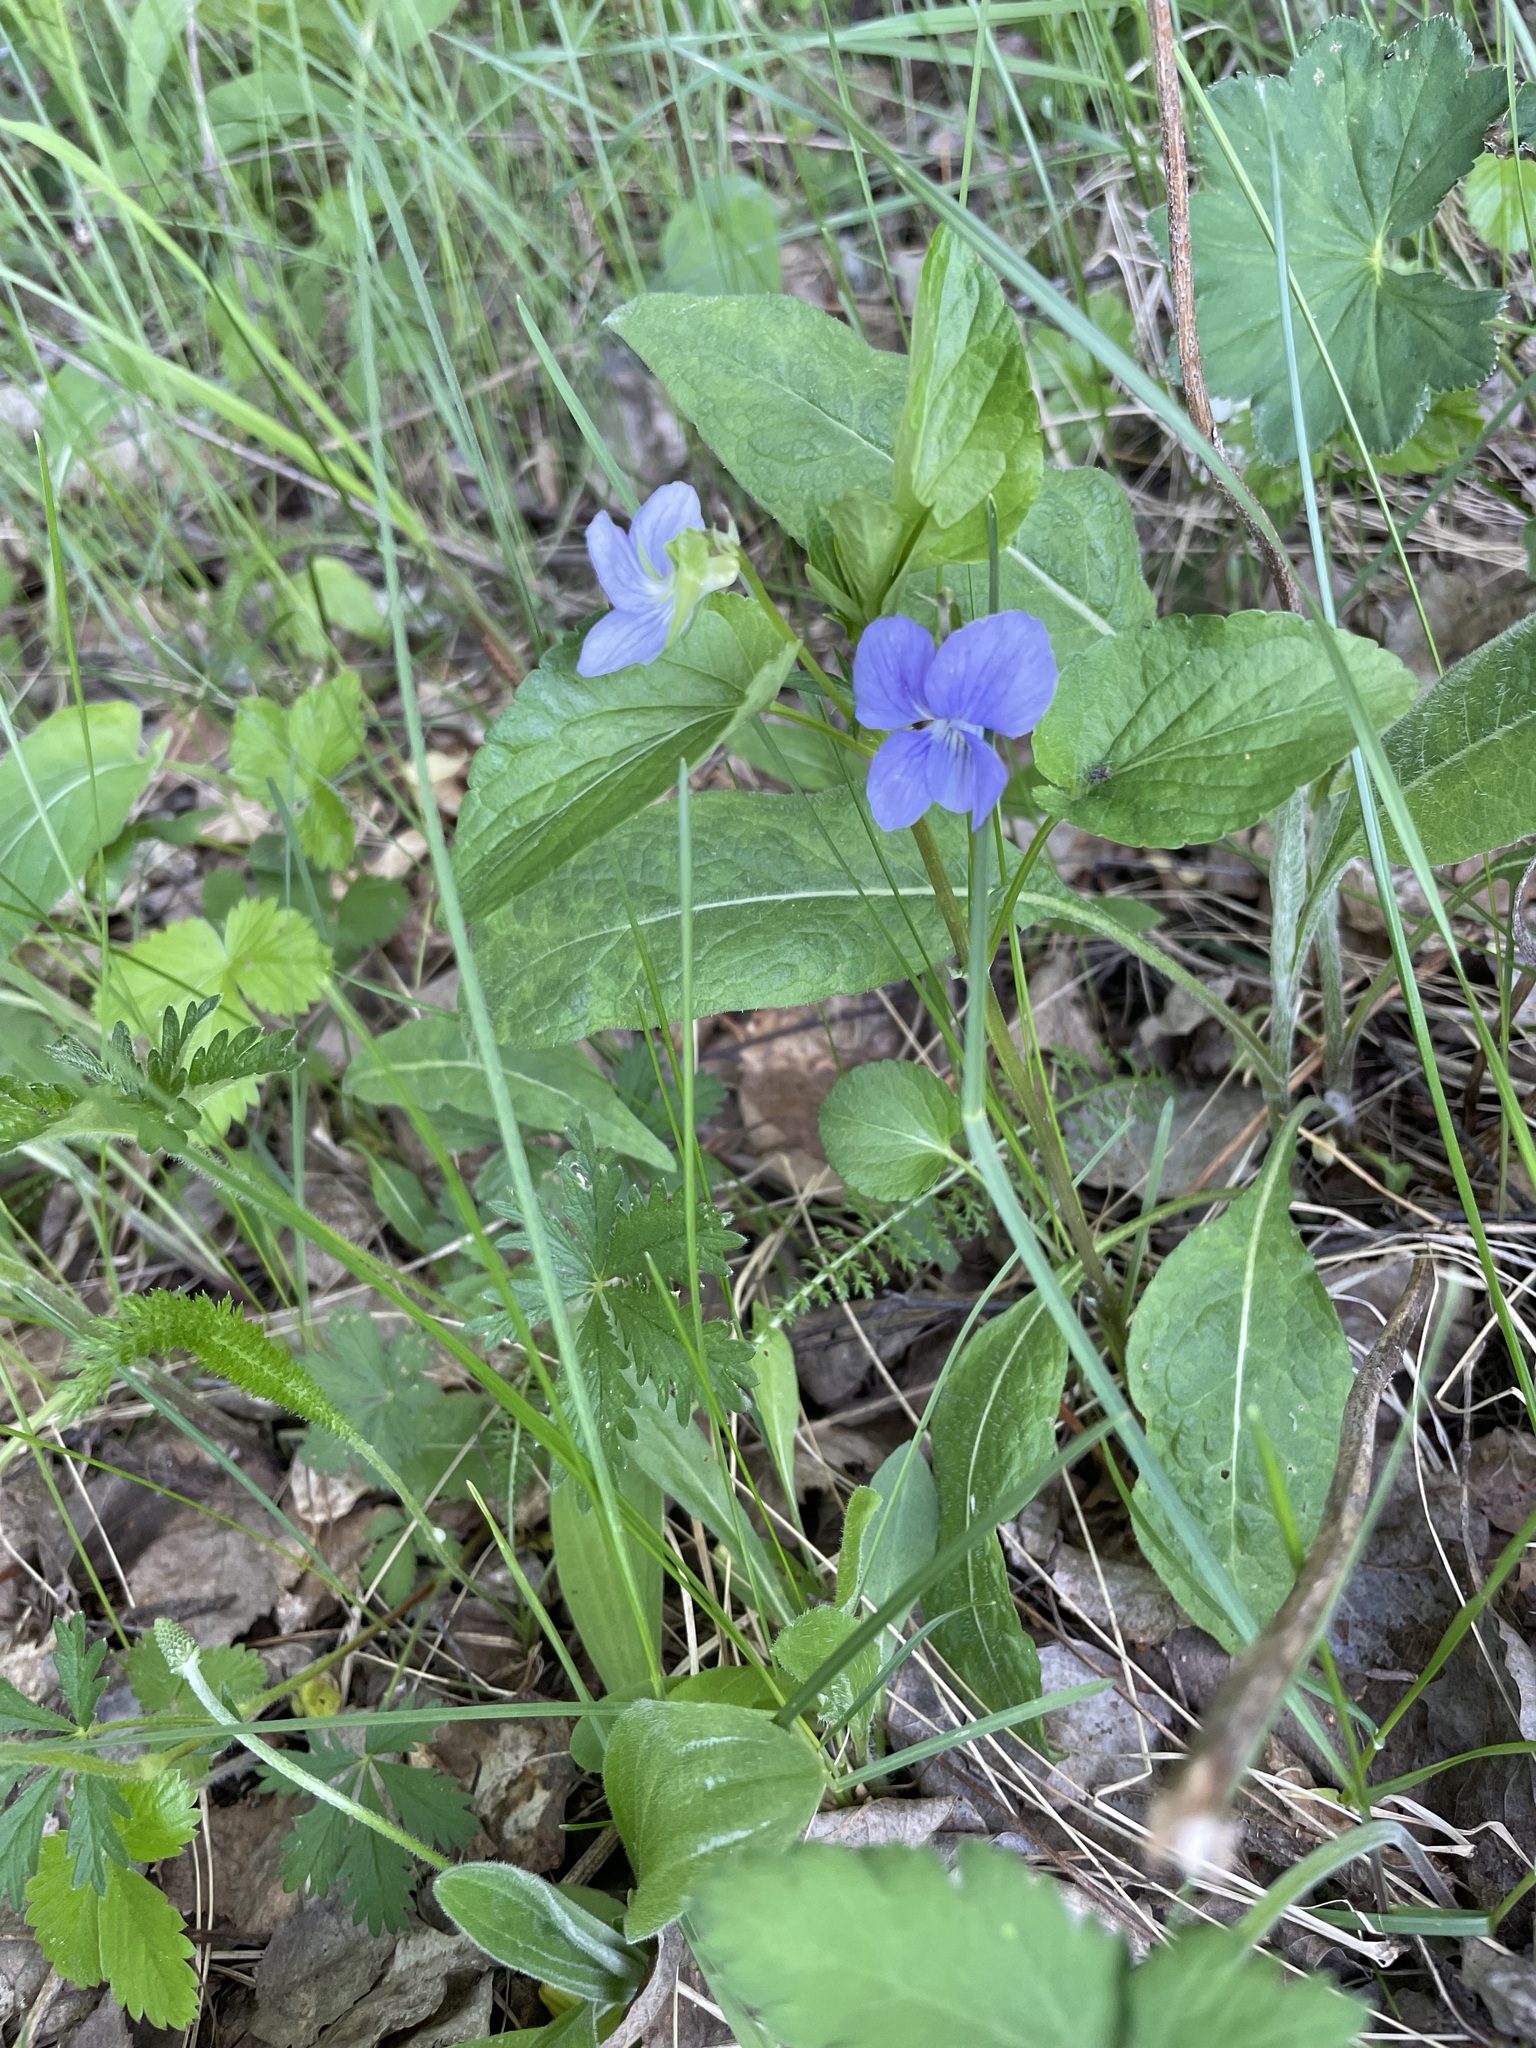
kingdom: Plantae
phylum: Tracheophyta
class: Magnoliopsida
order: Malpighiales
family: Violaceae
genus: Viola
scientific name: Viola
